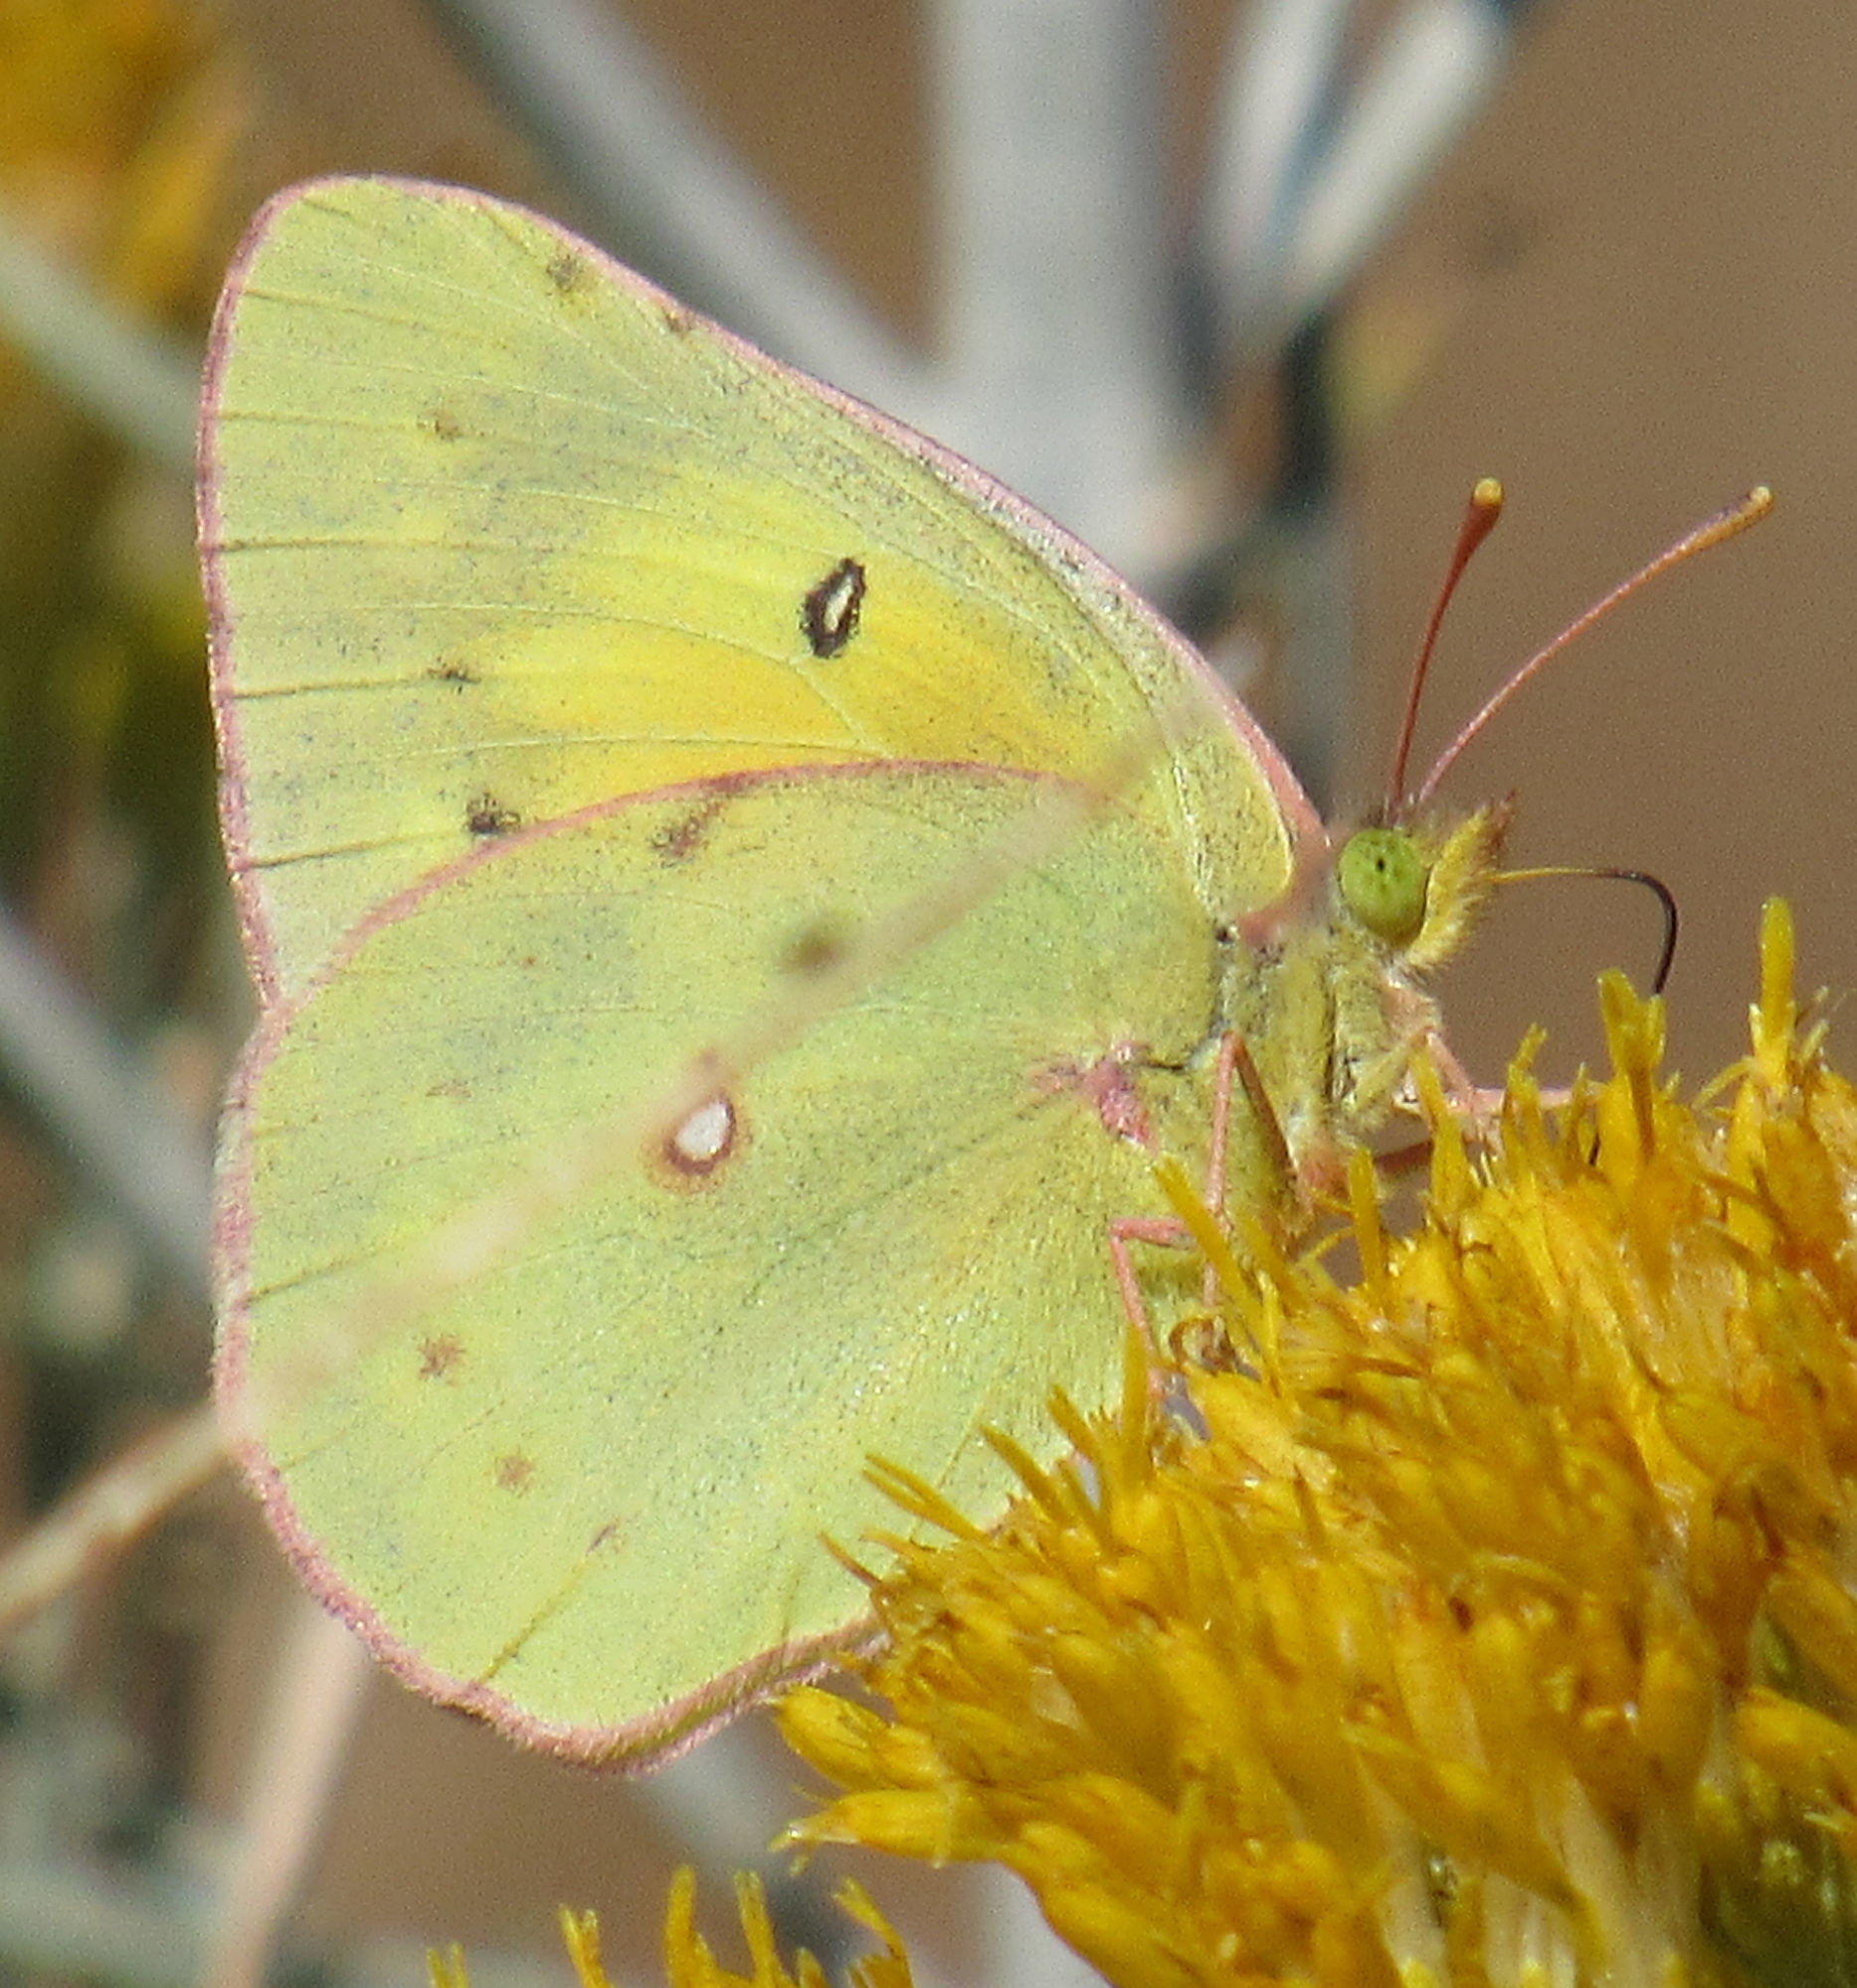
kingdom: Animalia
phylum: Arthropoda
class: Insecta
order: Lepidoptera
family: Pieridae
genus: Colias
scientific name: Colias eurytheme
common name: Alfalfa butterfly
